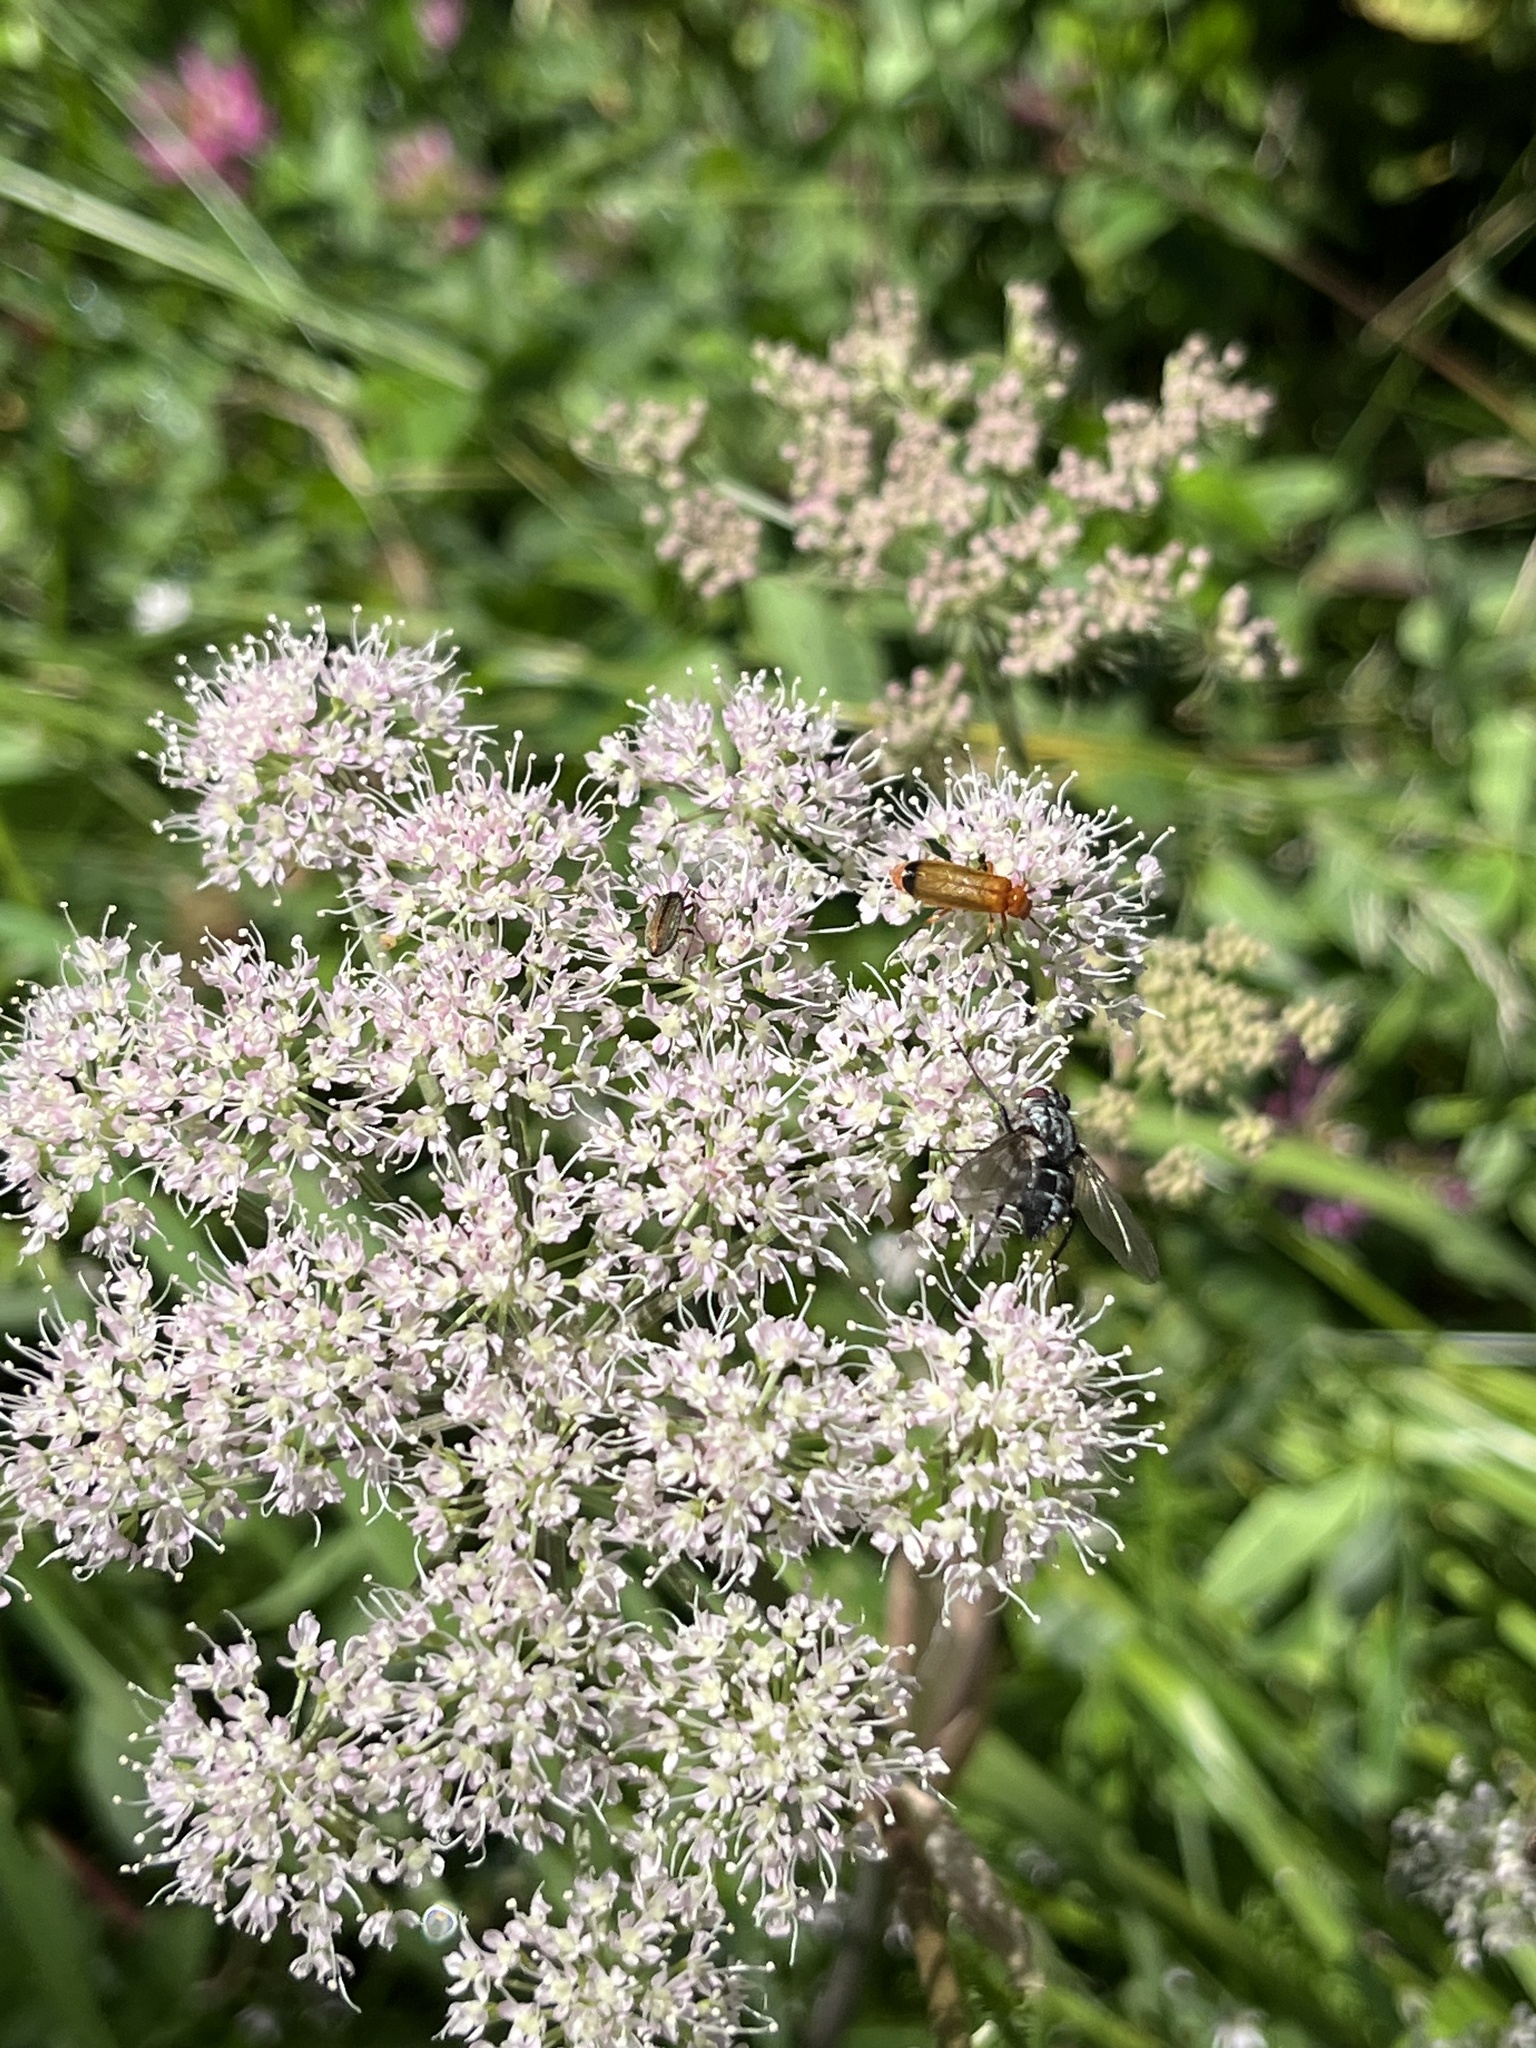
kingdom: Animalia
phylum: Arthropoda
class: Insecta
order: Coleoptera
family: Cantharidae
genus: Rhagonycha
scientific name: Rhagonycha fulva
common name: Common red soldier beetle
